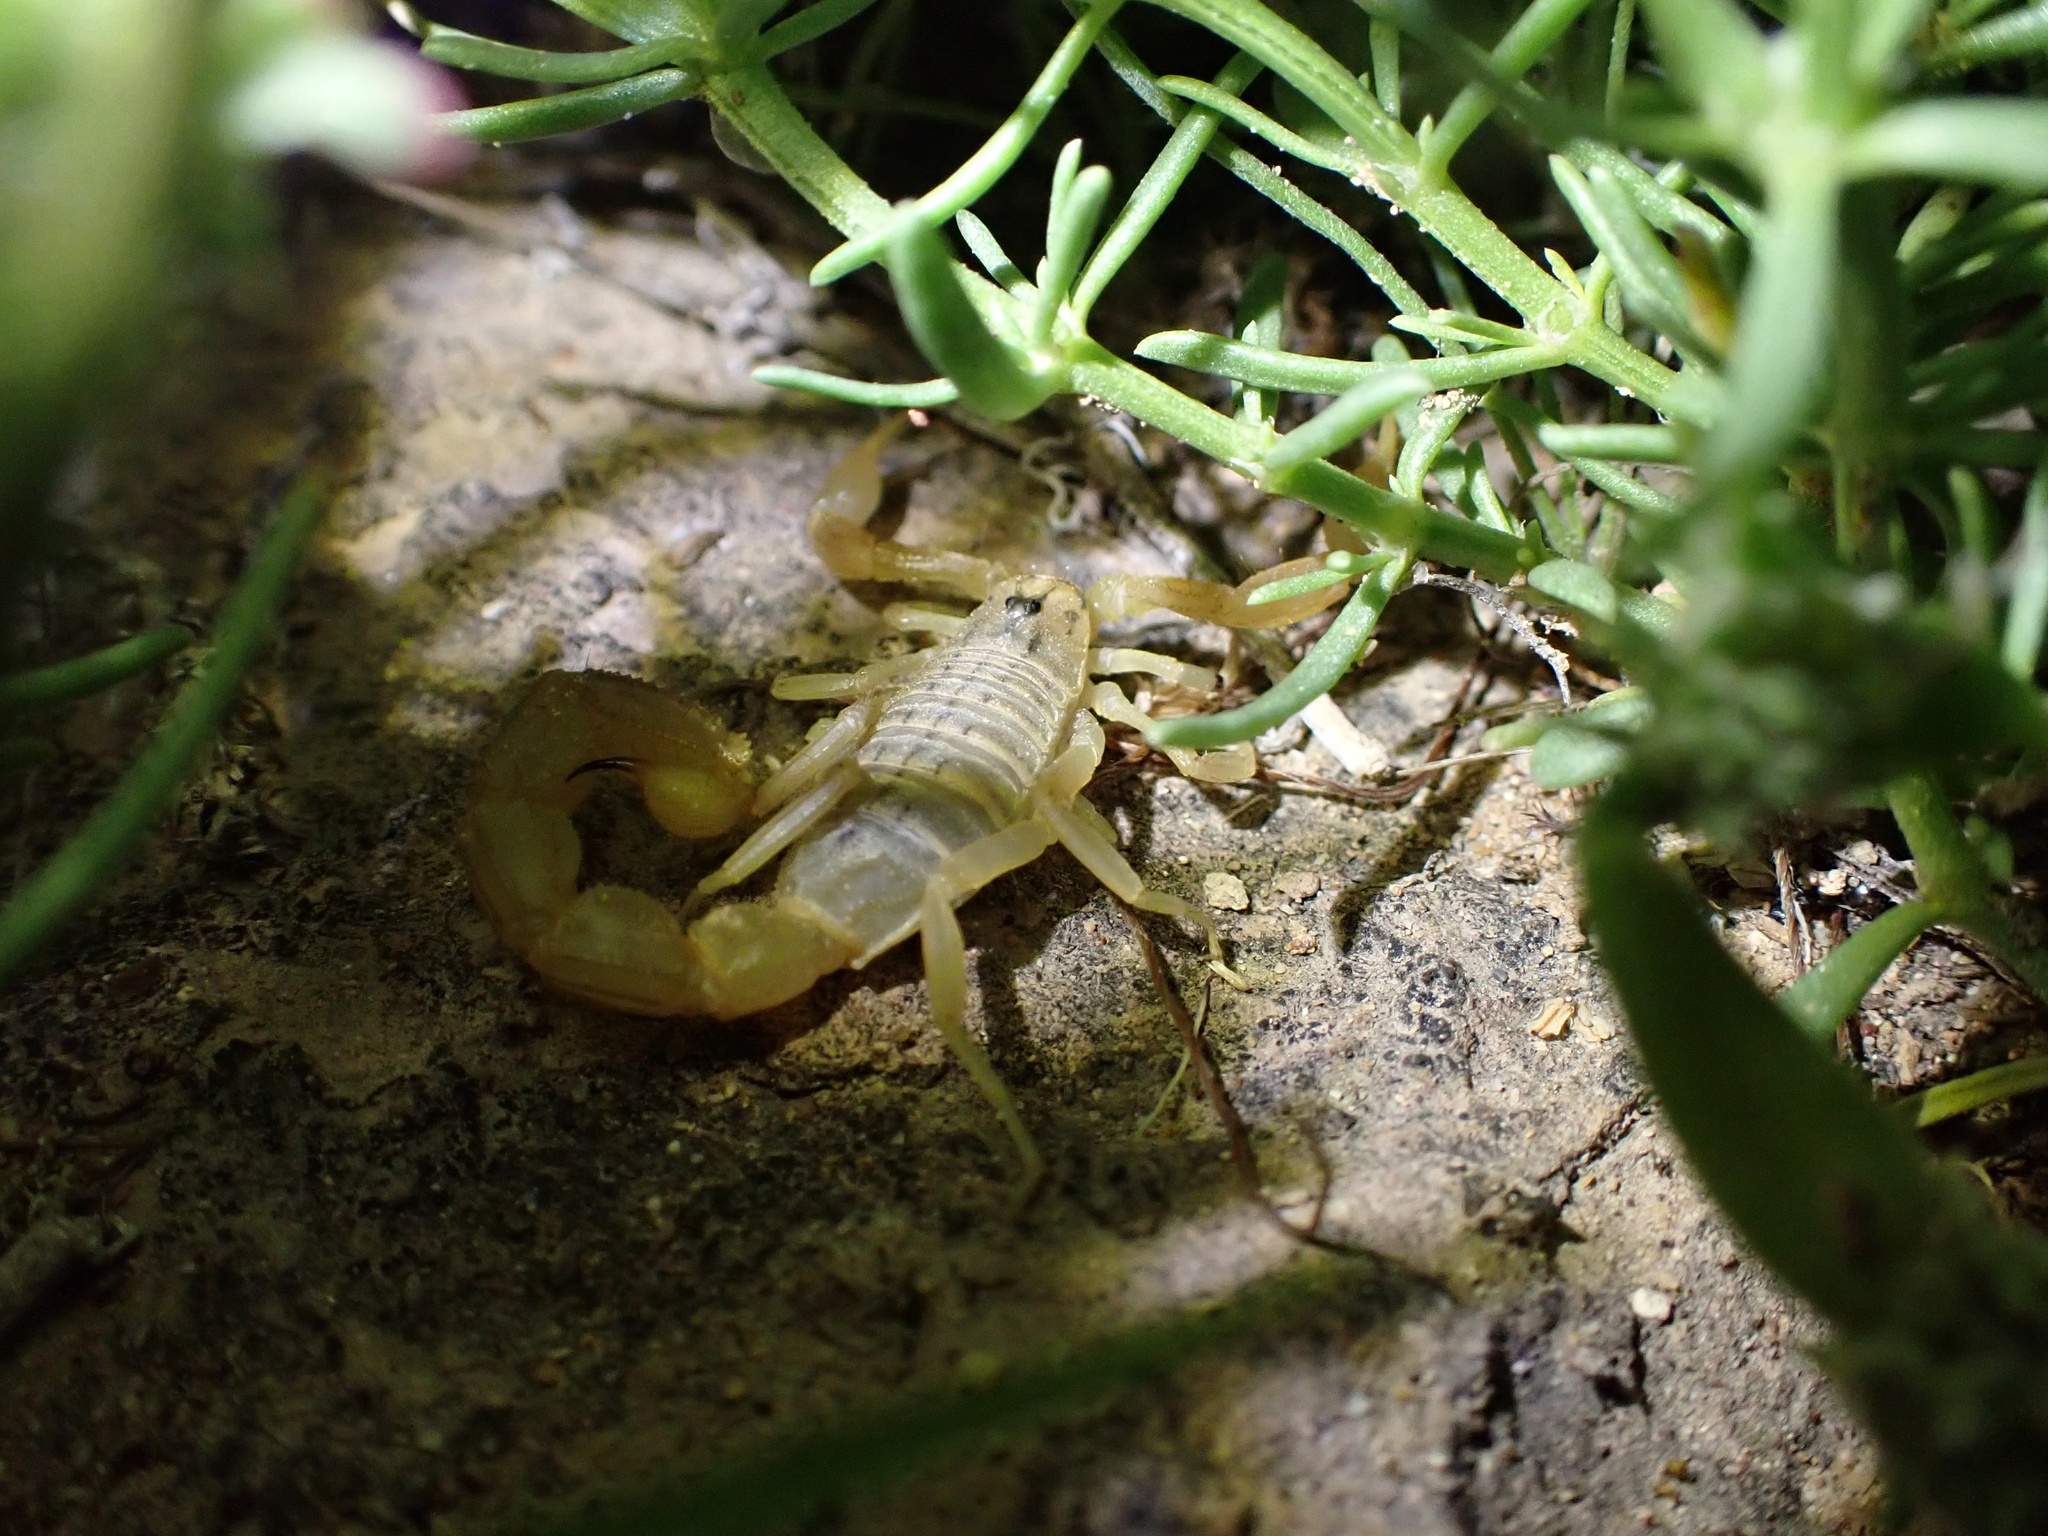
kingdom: Animalia
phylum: Arthropoda
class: Arachnida
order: Scorpiones
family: Buthidae
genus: Mesobuthus
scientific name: Mesobuthus crucittii
